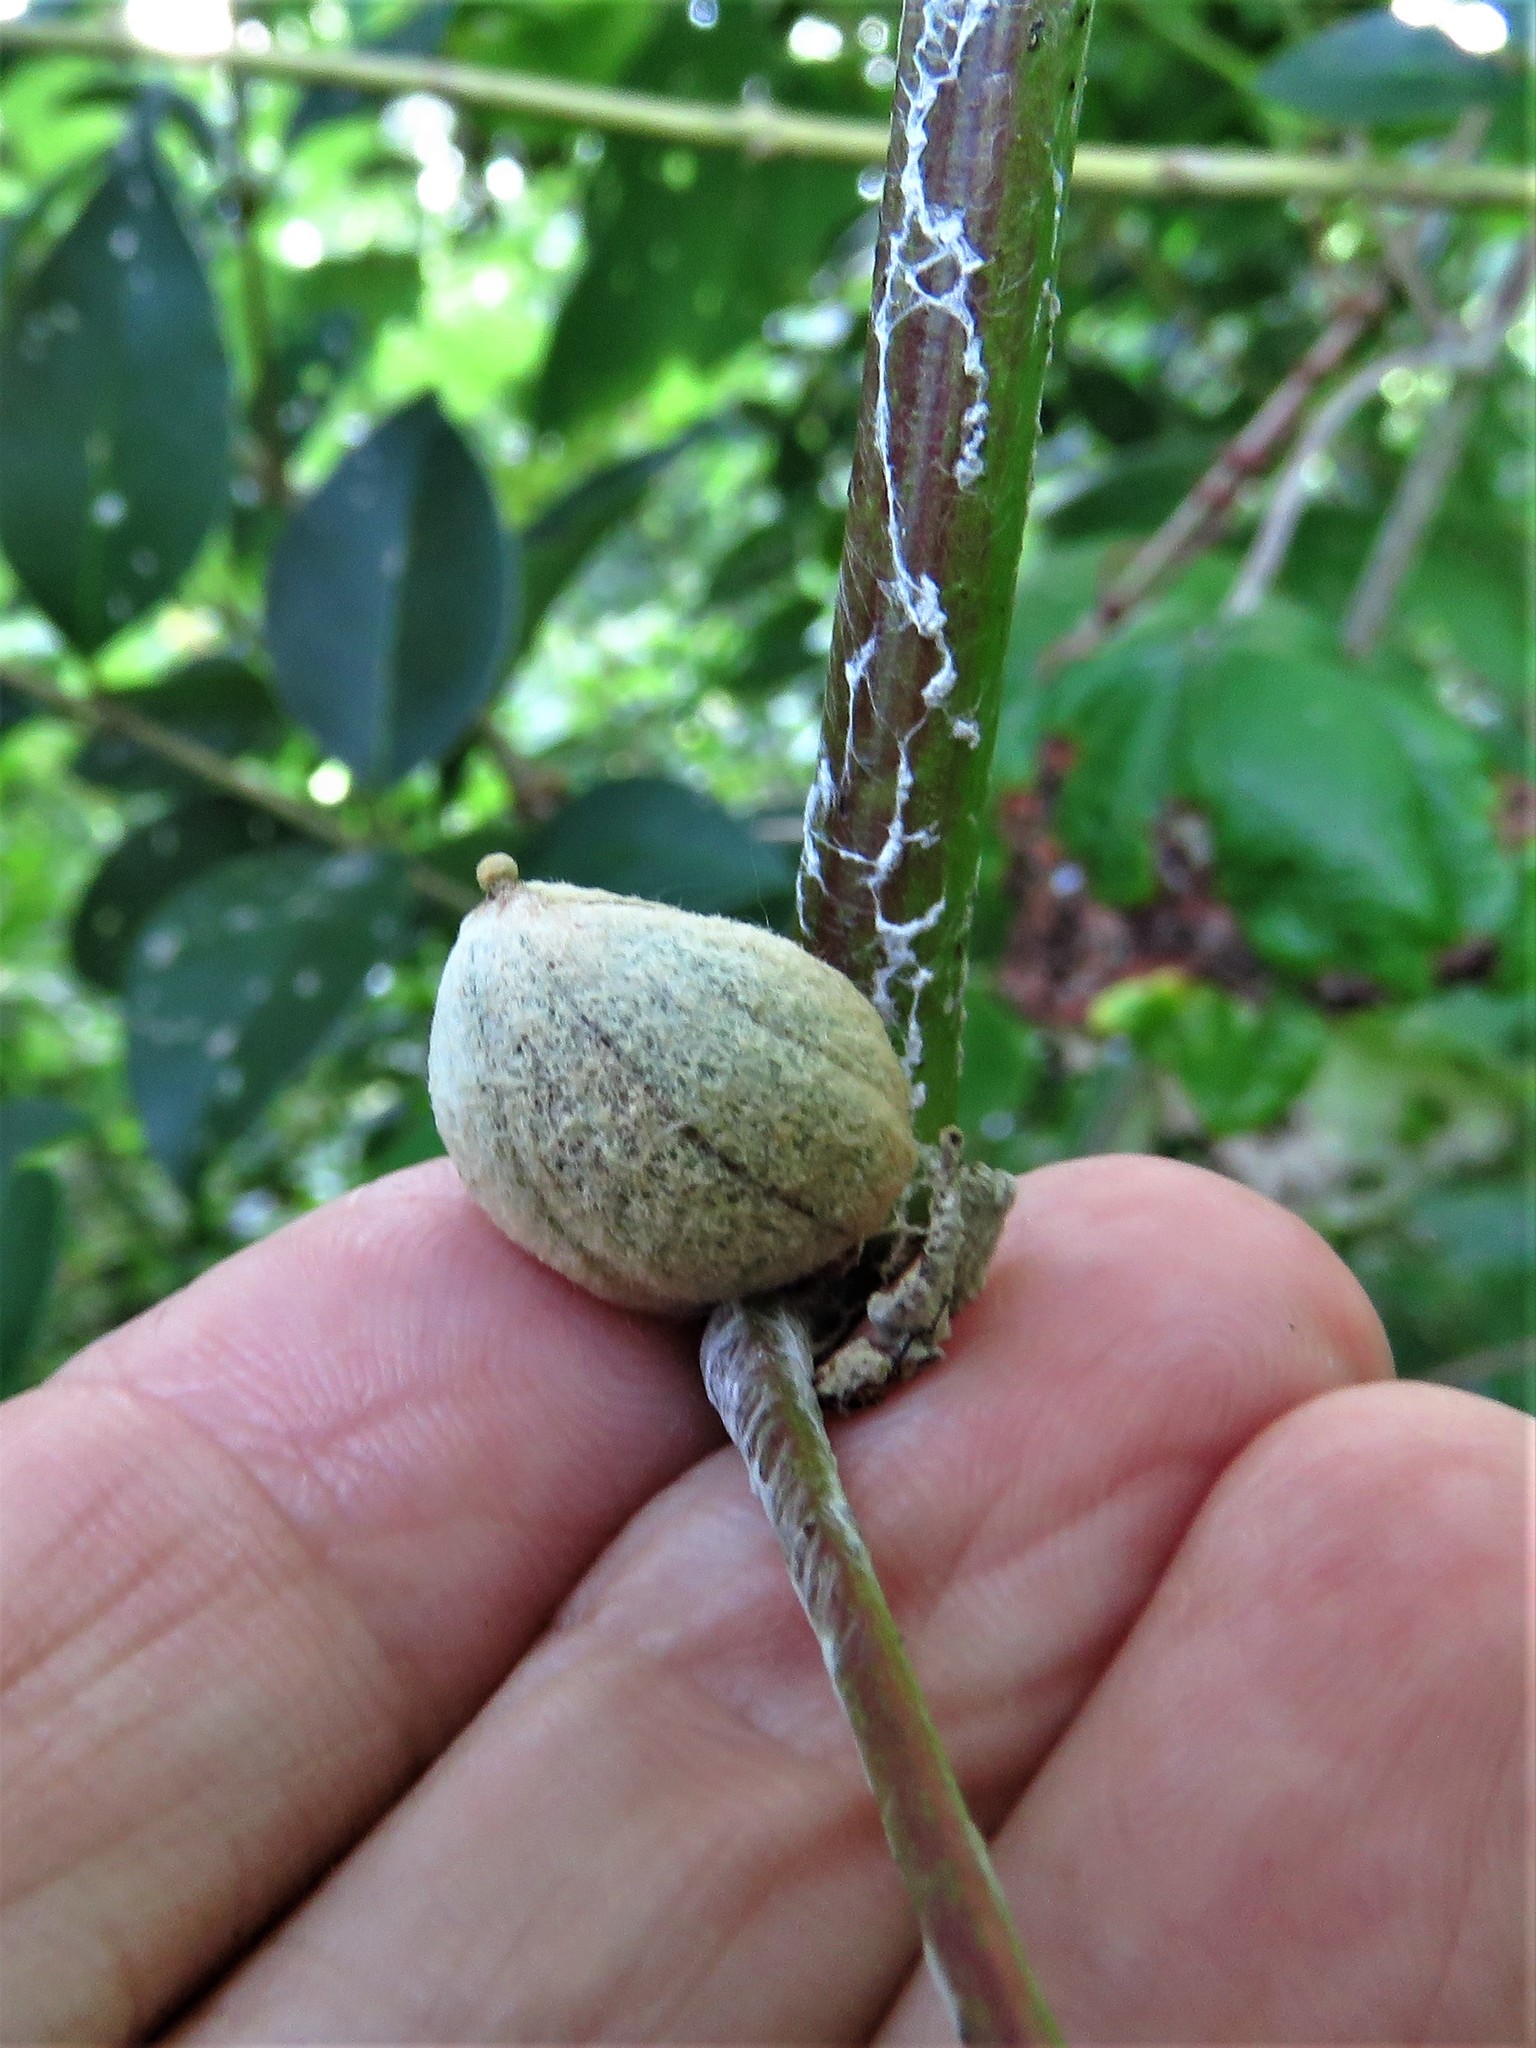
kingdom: Animalia
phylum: Arthropoda
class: Insecta
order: Diptera
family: Cecidomyiidae
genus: Ampelomyia
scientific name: Ampelomyia vitispomum
